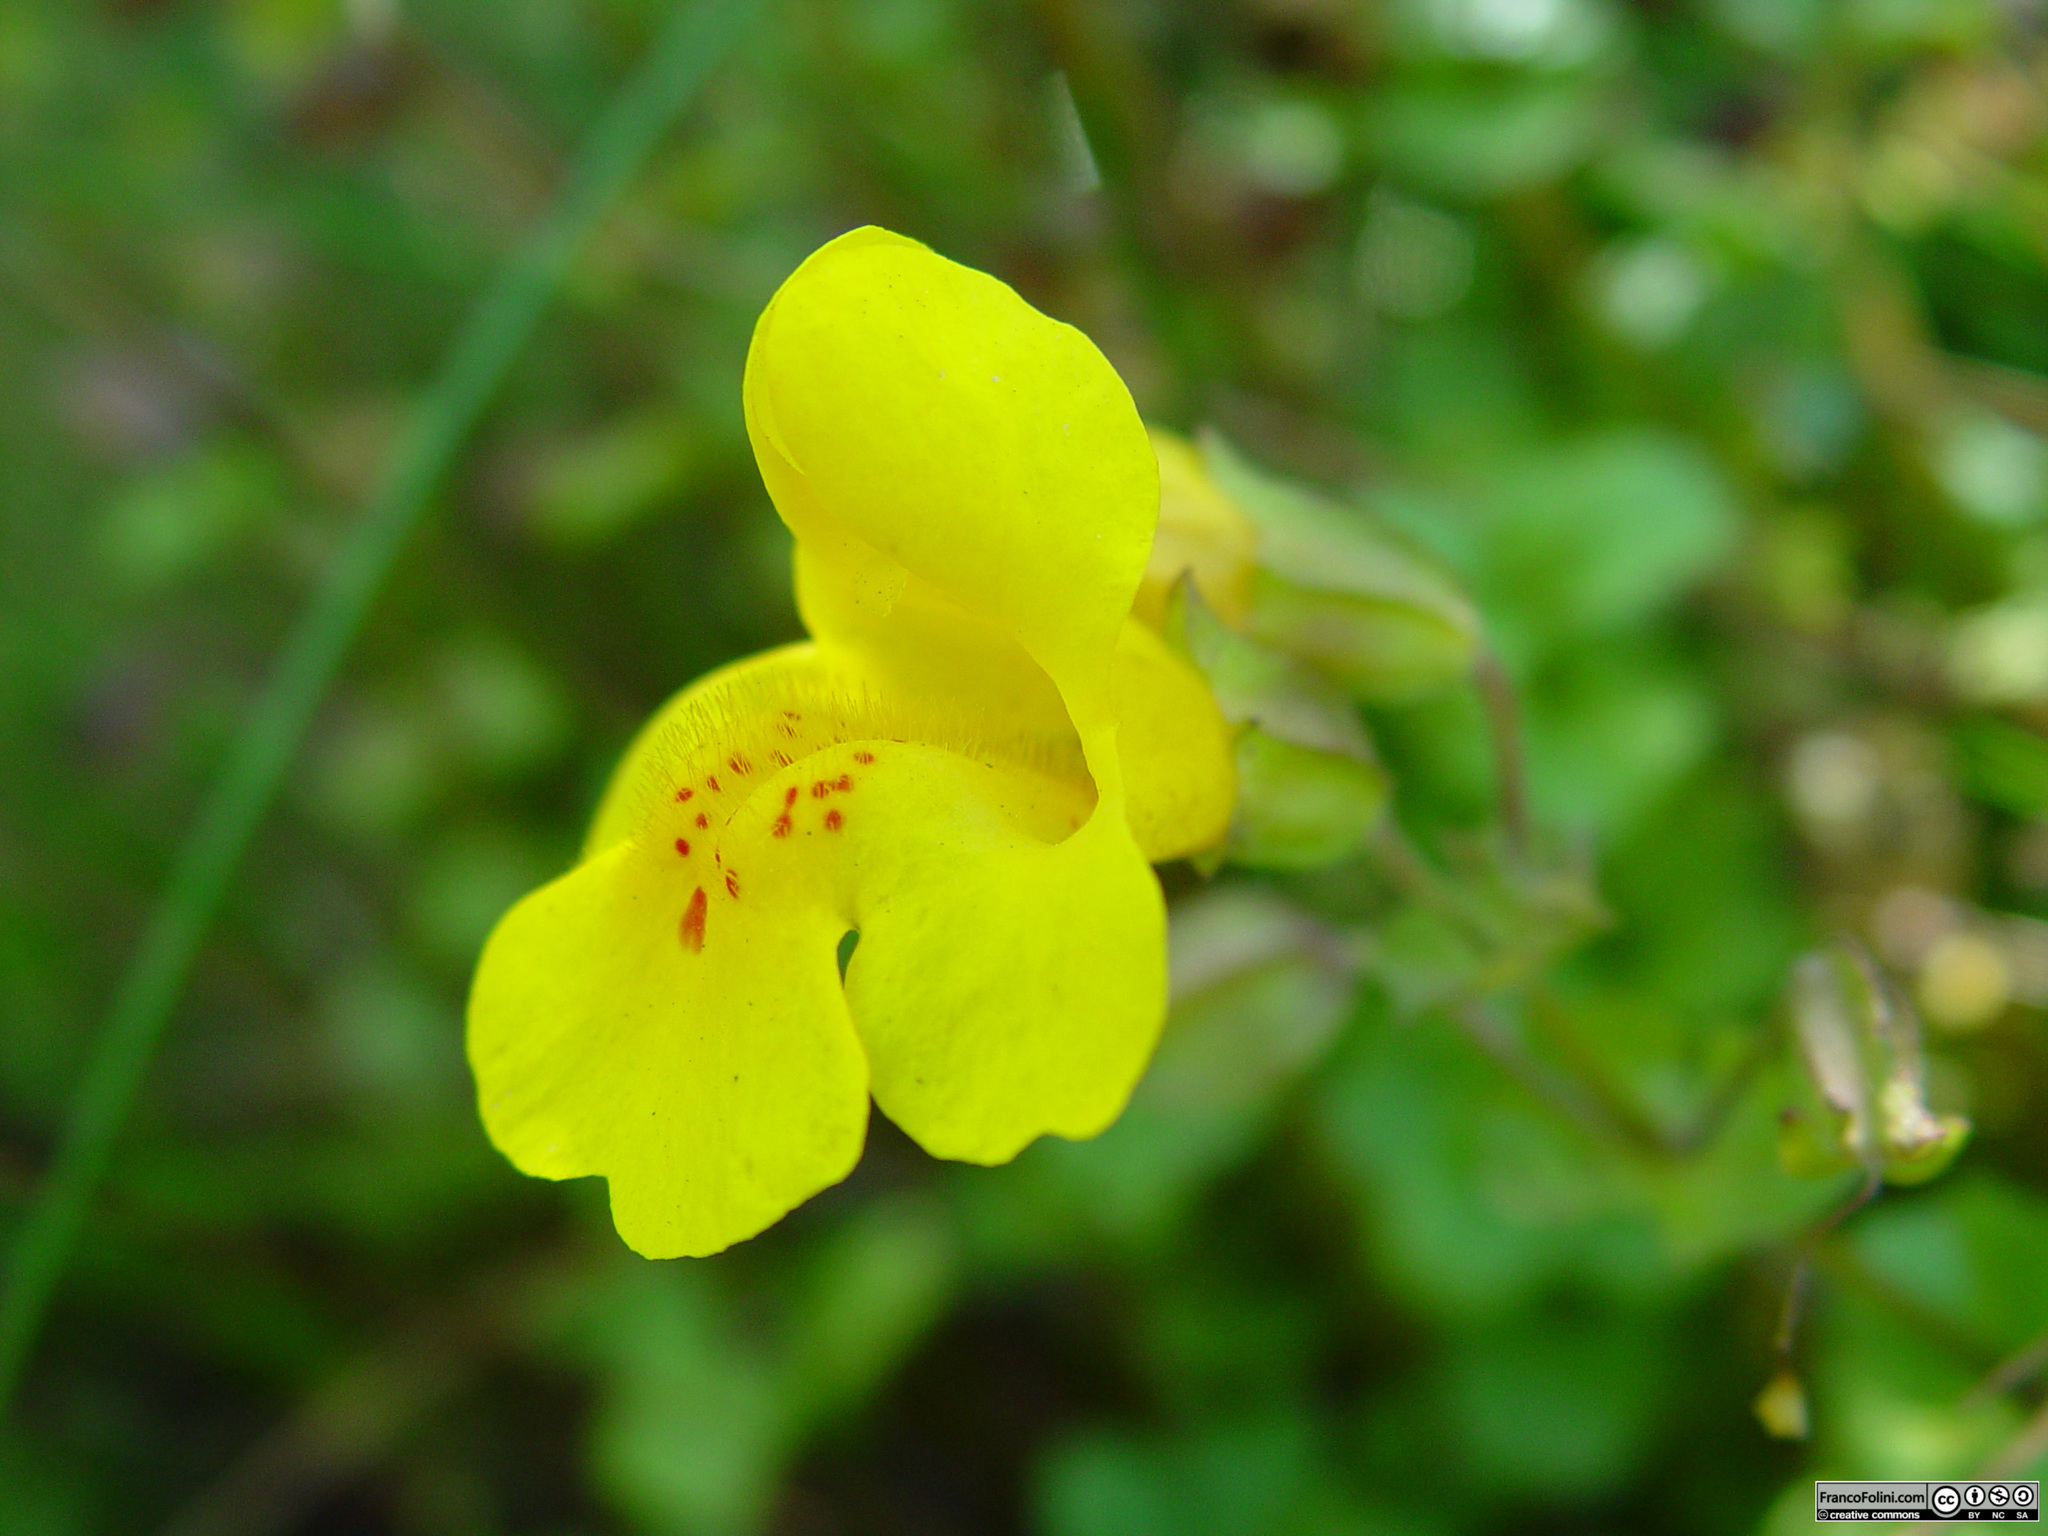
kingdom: Plantae
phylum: Tracheophyta
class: Magnoliopsida
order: Lamiales
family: Phrymaceae
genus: Erythranthe
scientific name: Erythranthe guttata
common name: Monkeyflower
